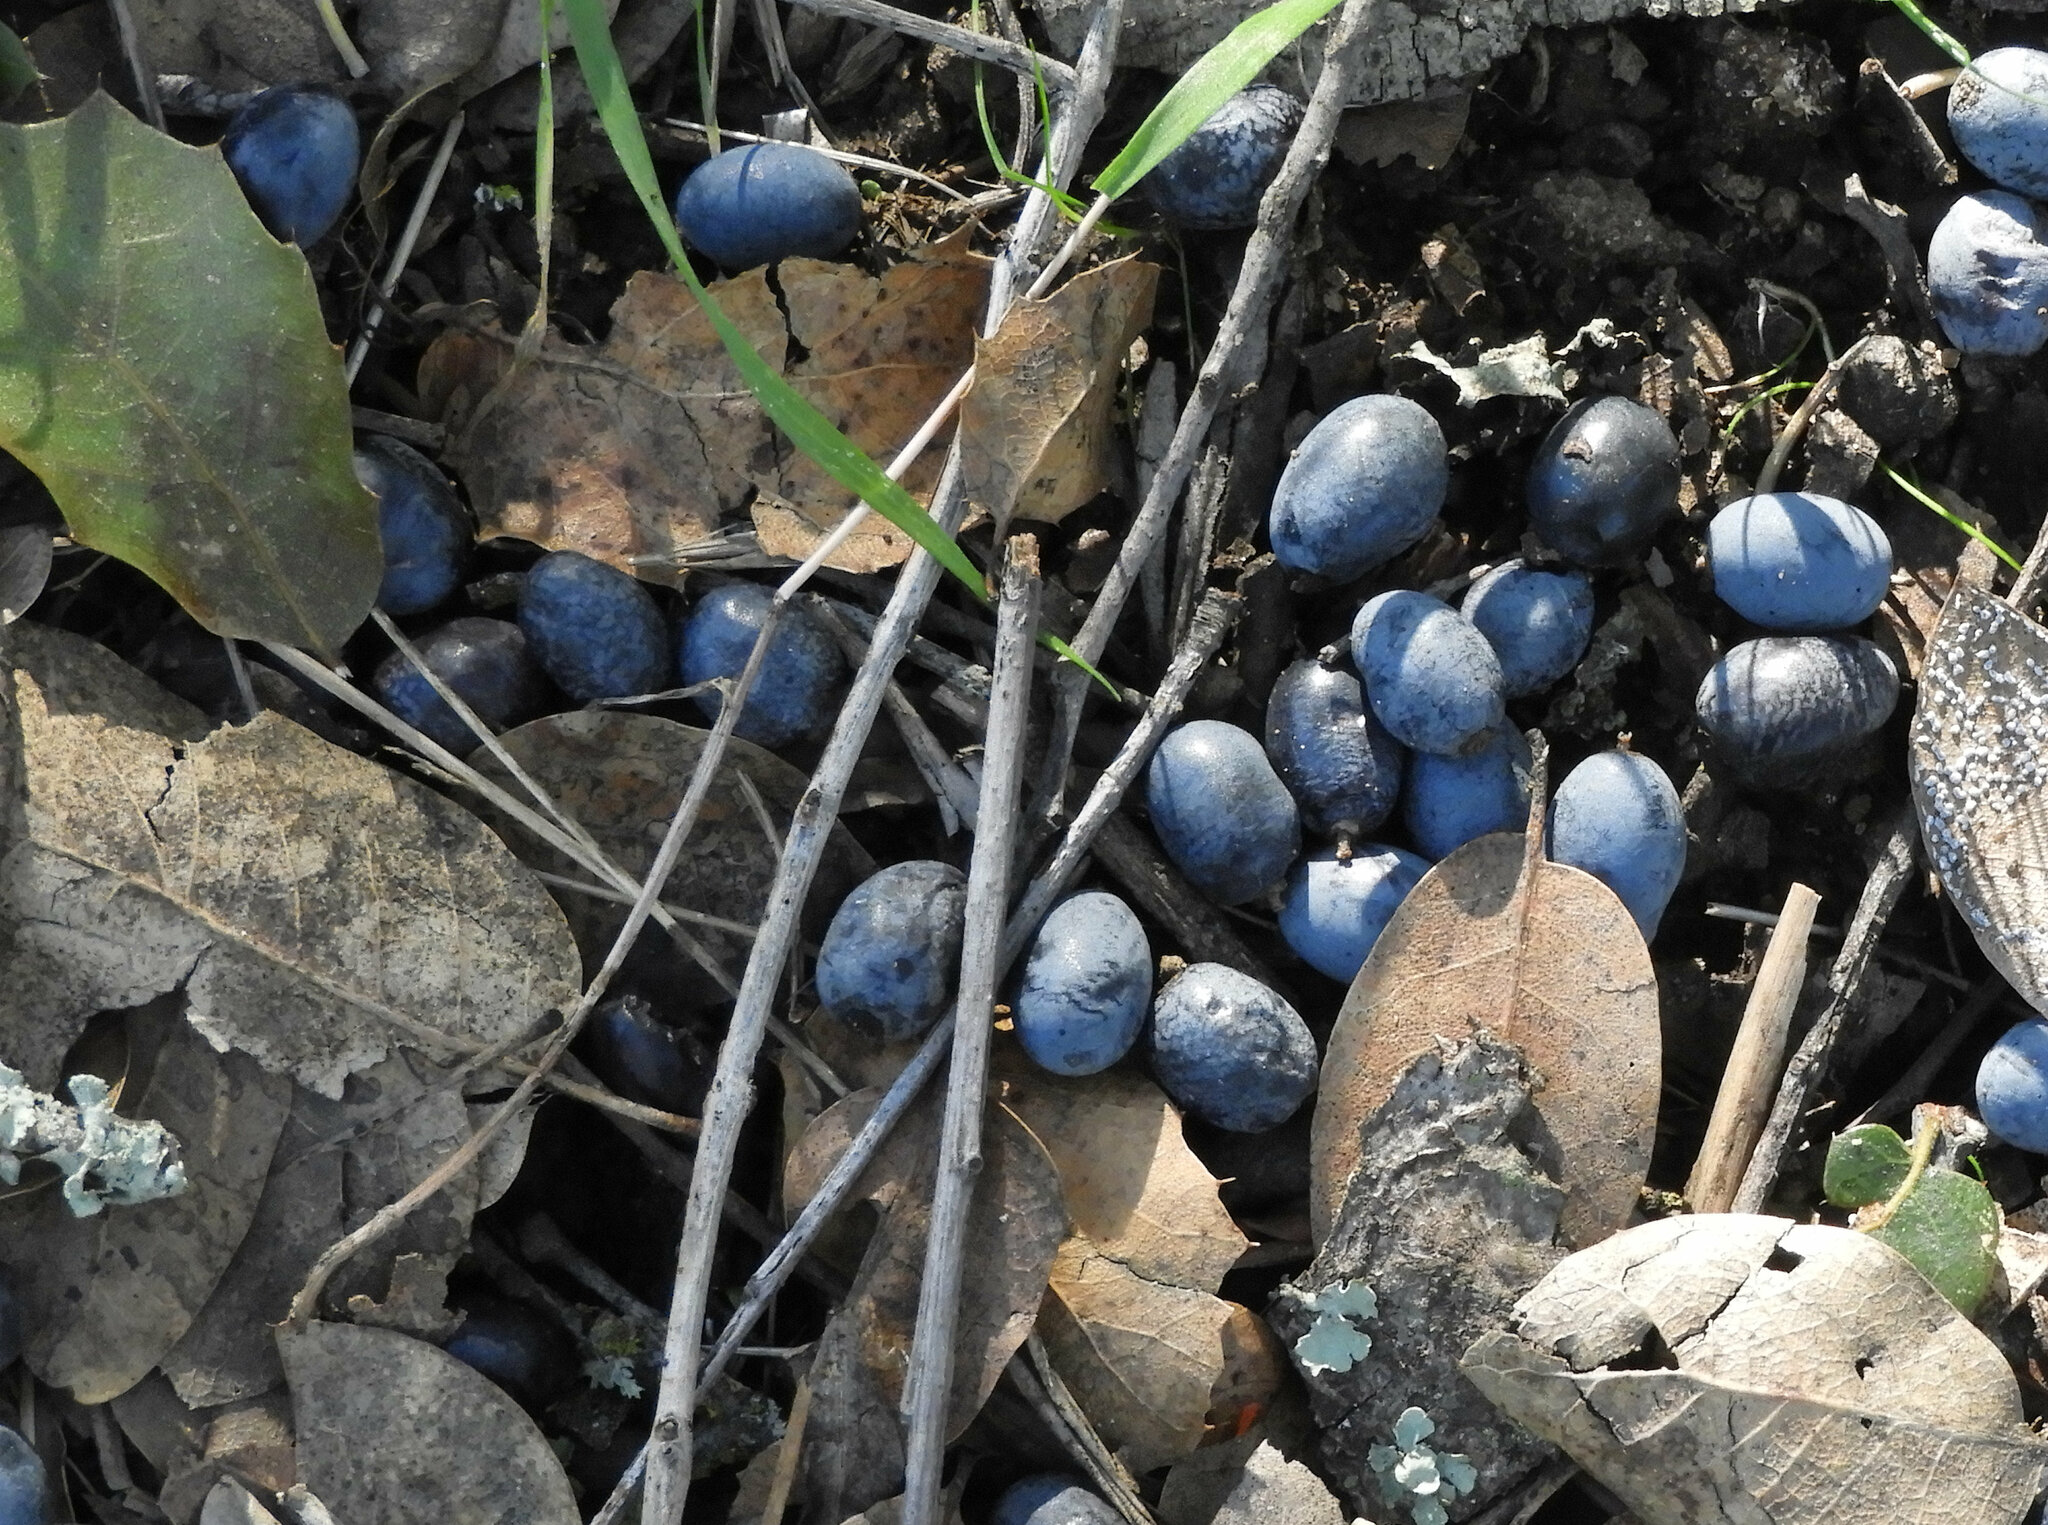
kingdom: Plantae
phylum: Tracheophyta
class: Magnoliopsida
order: Lamiales
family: Oleaceae
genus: Olea
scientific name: Olea europaea
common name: Olive
